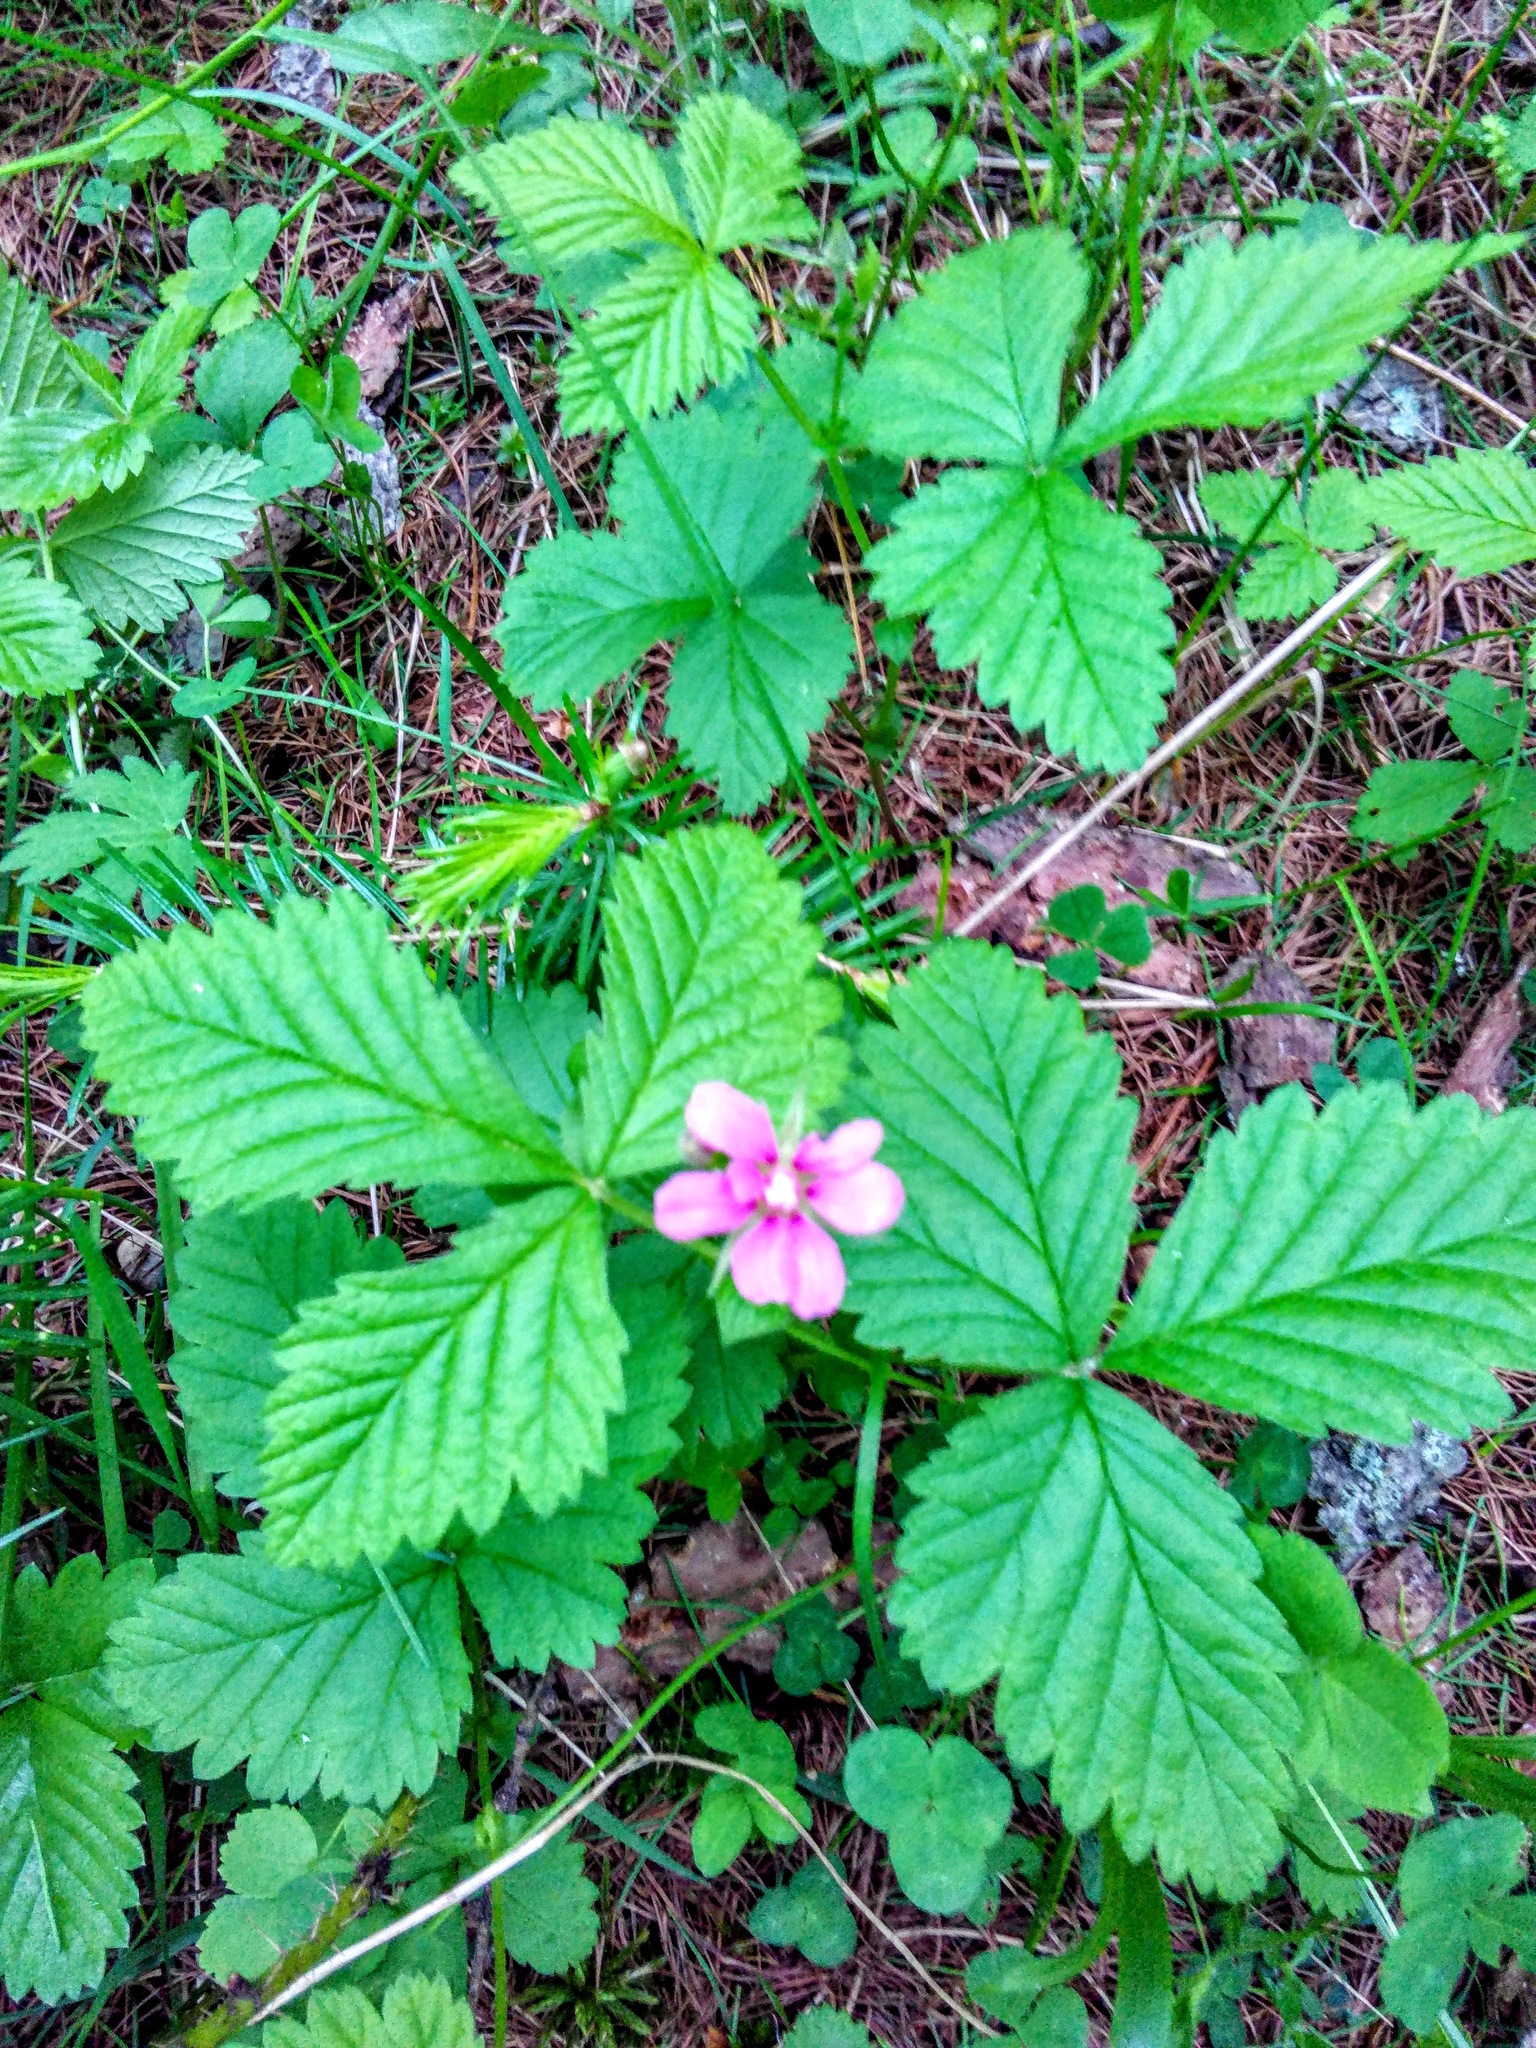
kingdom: Plantae
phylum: Tracheophyta
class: Magnoliopsida
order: Rosales
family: Rosaceae
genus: Rubus
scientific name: Rubus arcticus
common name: Arctic bramble
